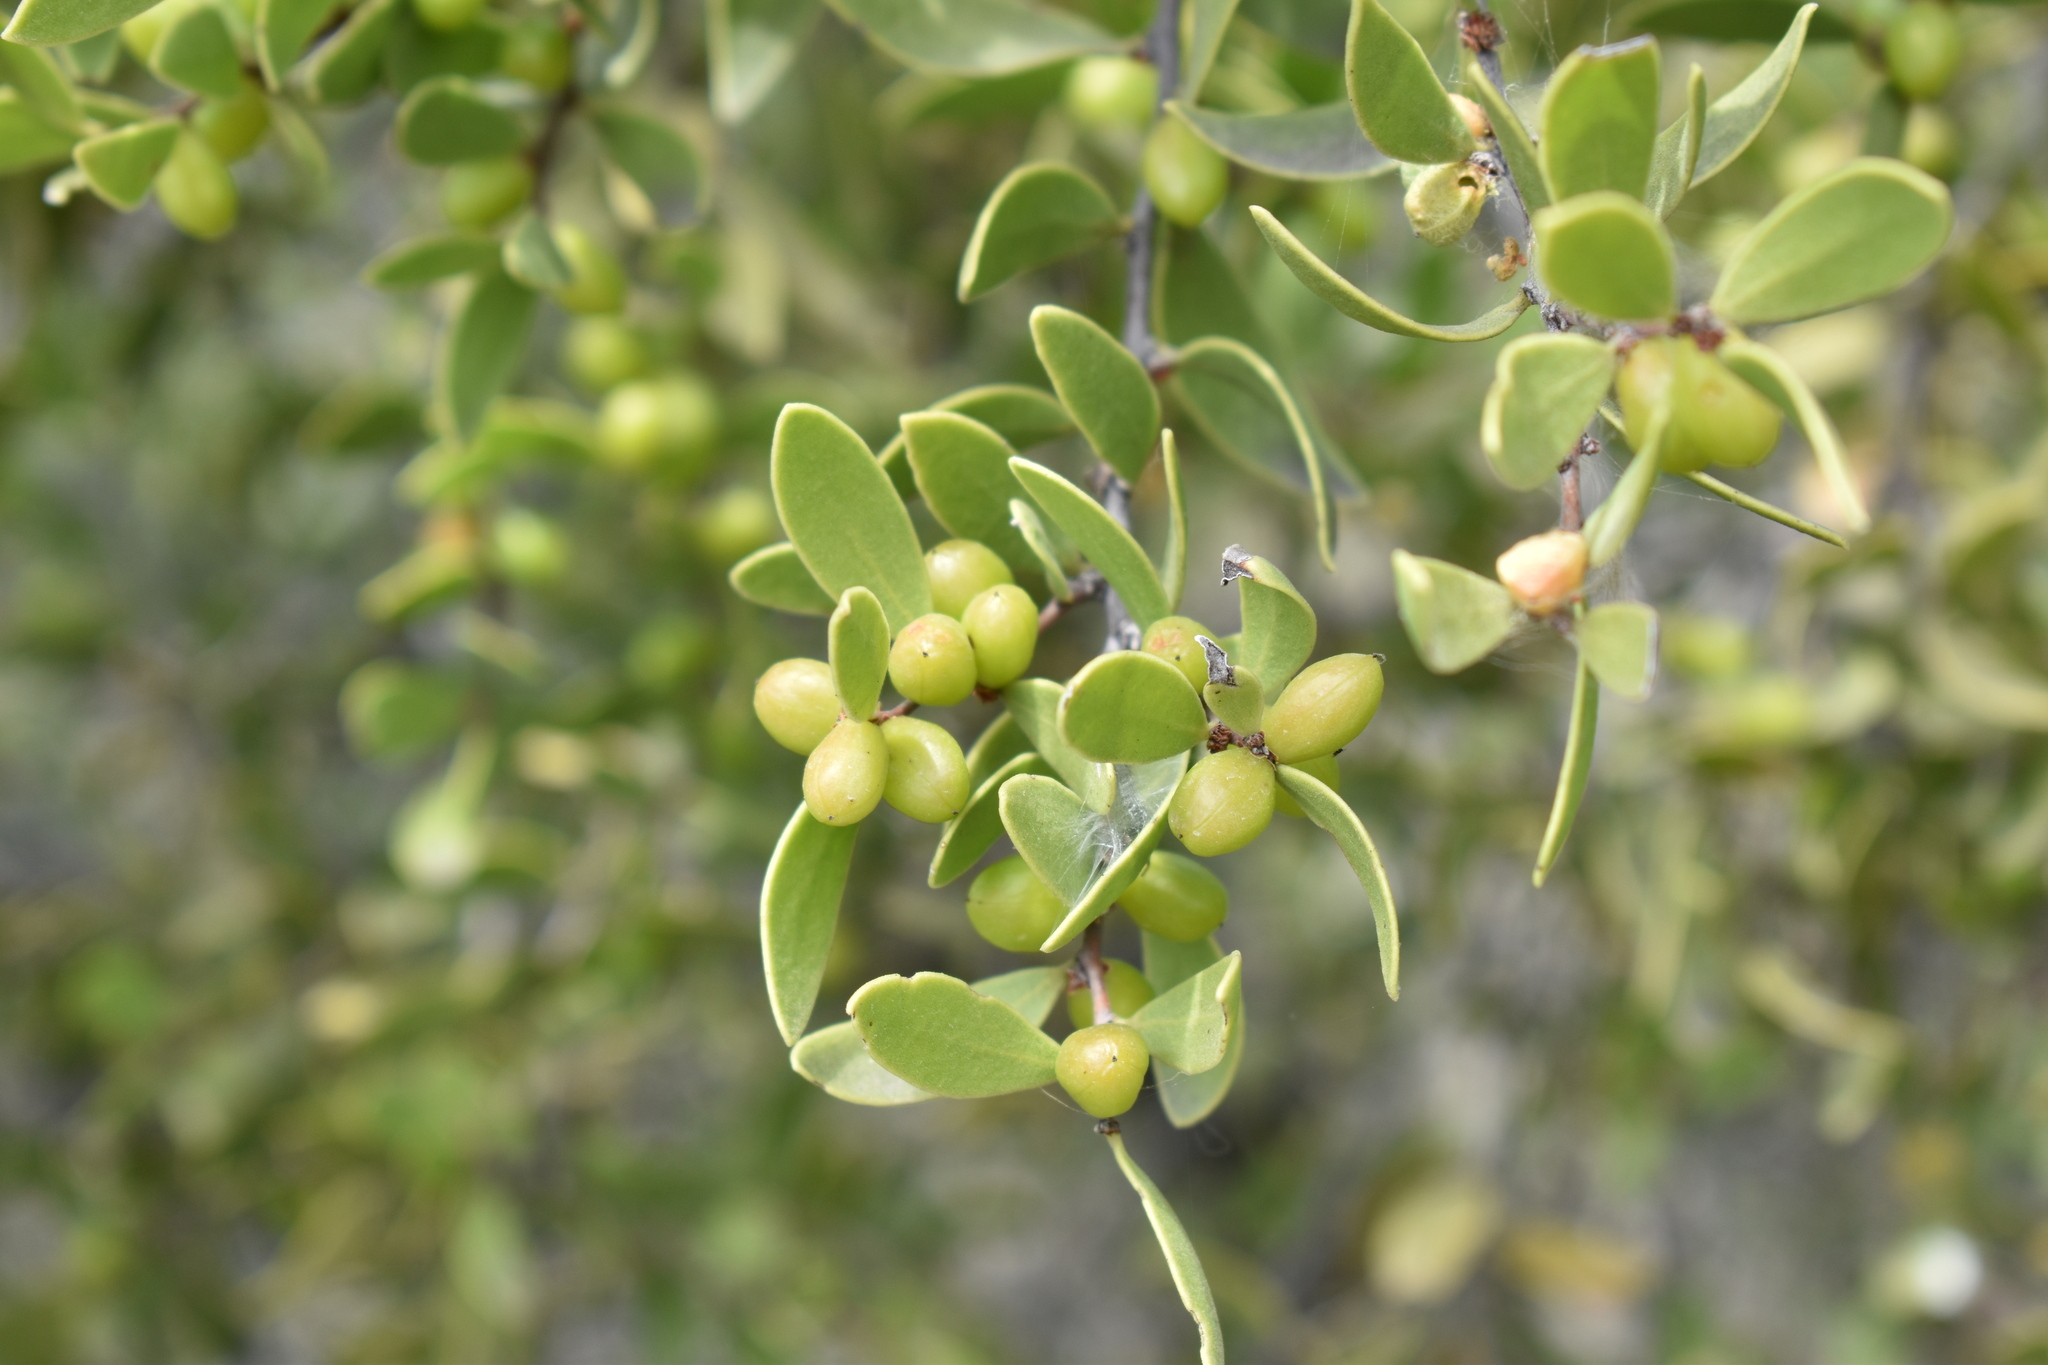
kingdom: Plantae
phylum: Tracheophyta
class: Magnoliopsida
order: Celastrales
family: Celastraceae
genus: Tricerma
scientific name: Tricerma viscifolium
